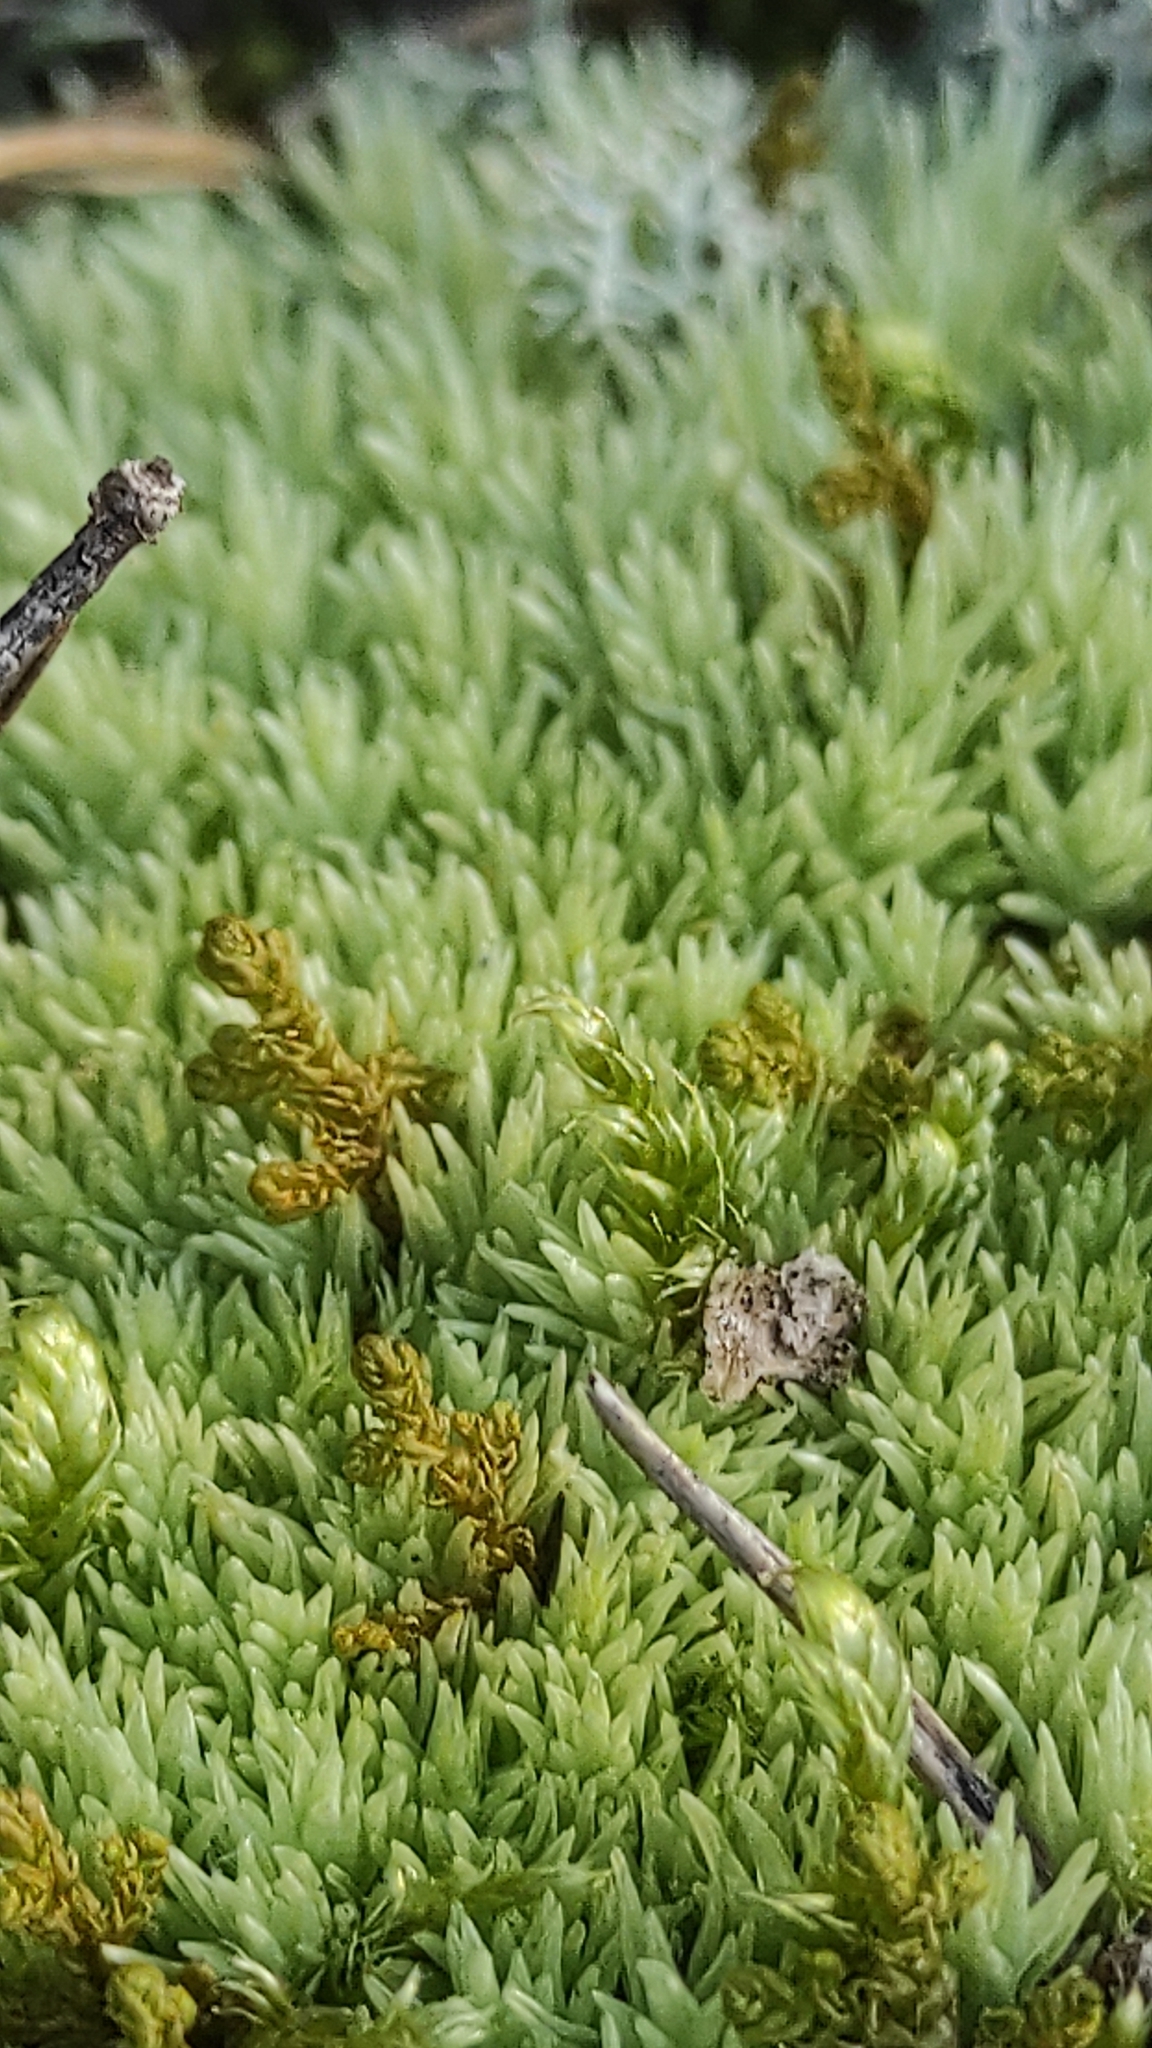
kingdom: Plantae
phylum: Bryophyta
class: Bryopsida
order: Dicranales
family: Leucobryaceae
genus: Leucobryum
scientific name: Leucobryum glaucum
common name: Large white-moss
